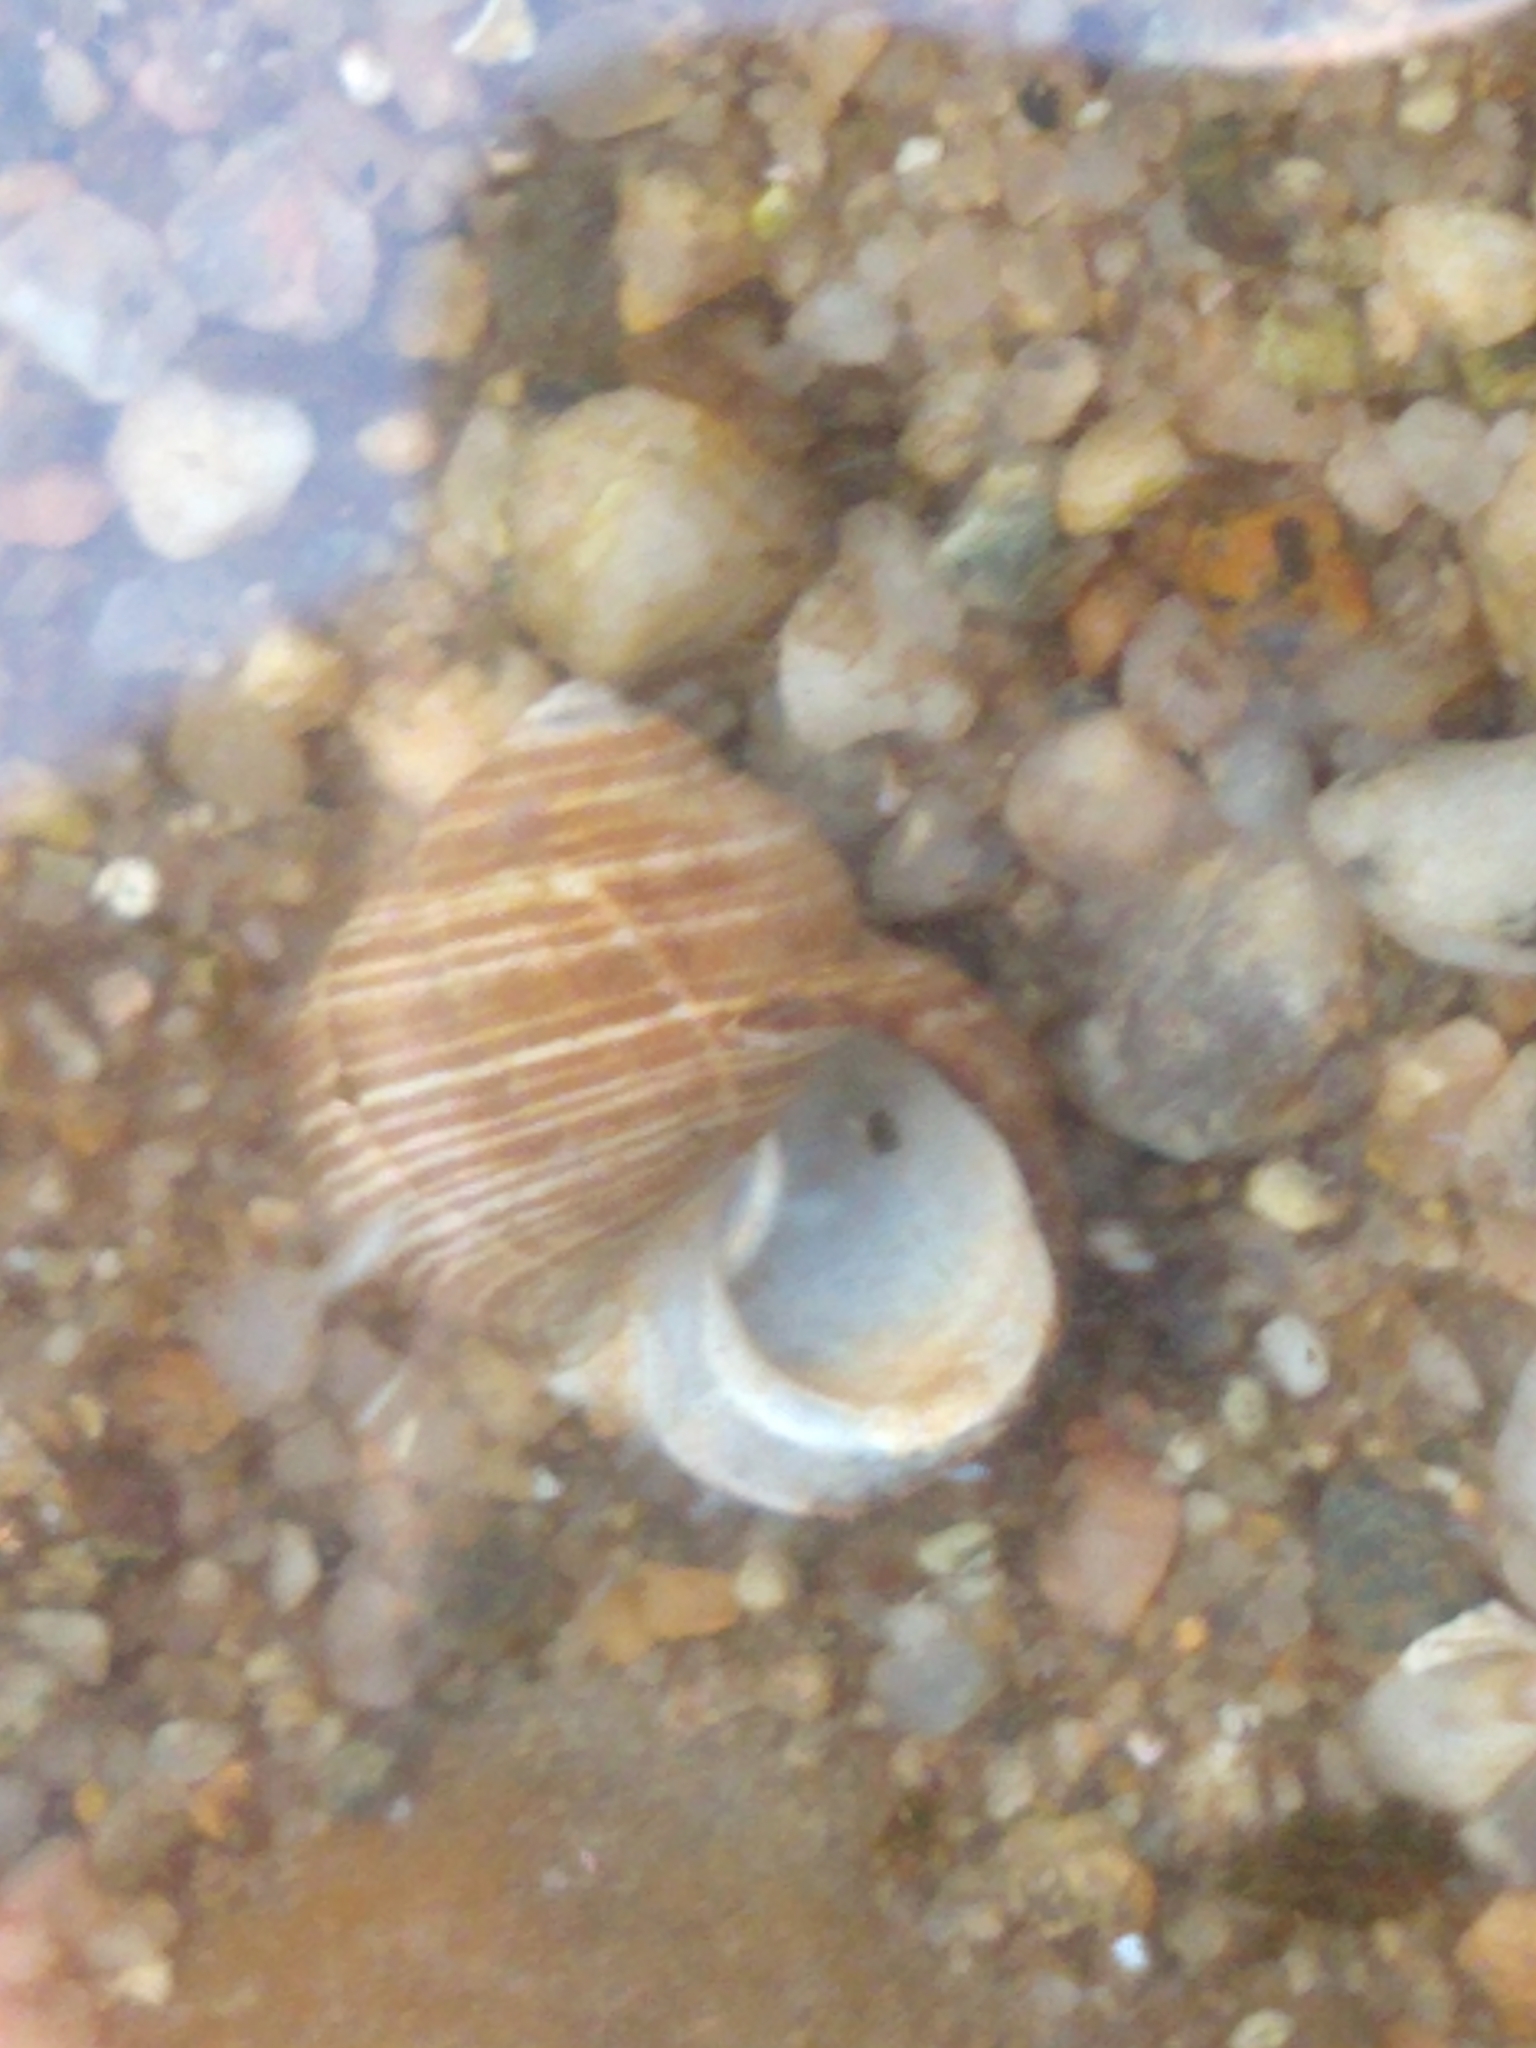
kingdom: Animalia
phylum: Mollusca
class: Gastropoda
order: Littorinimorpha
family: Littorinidae
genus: Littorina
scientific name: Littorina littorea
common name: Common periwinkle
